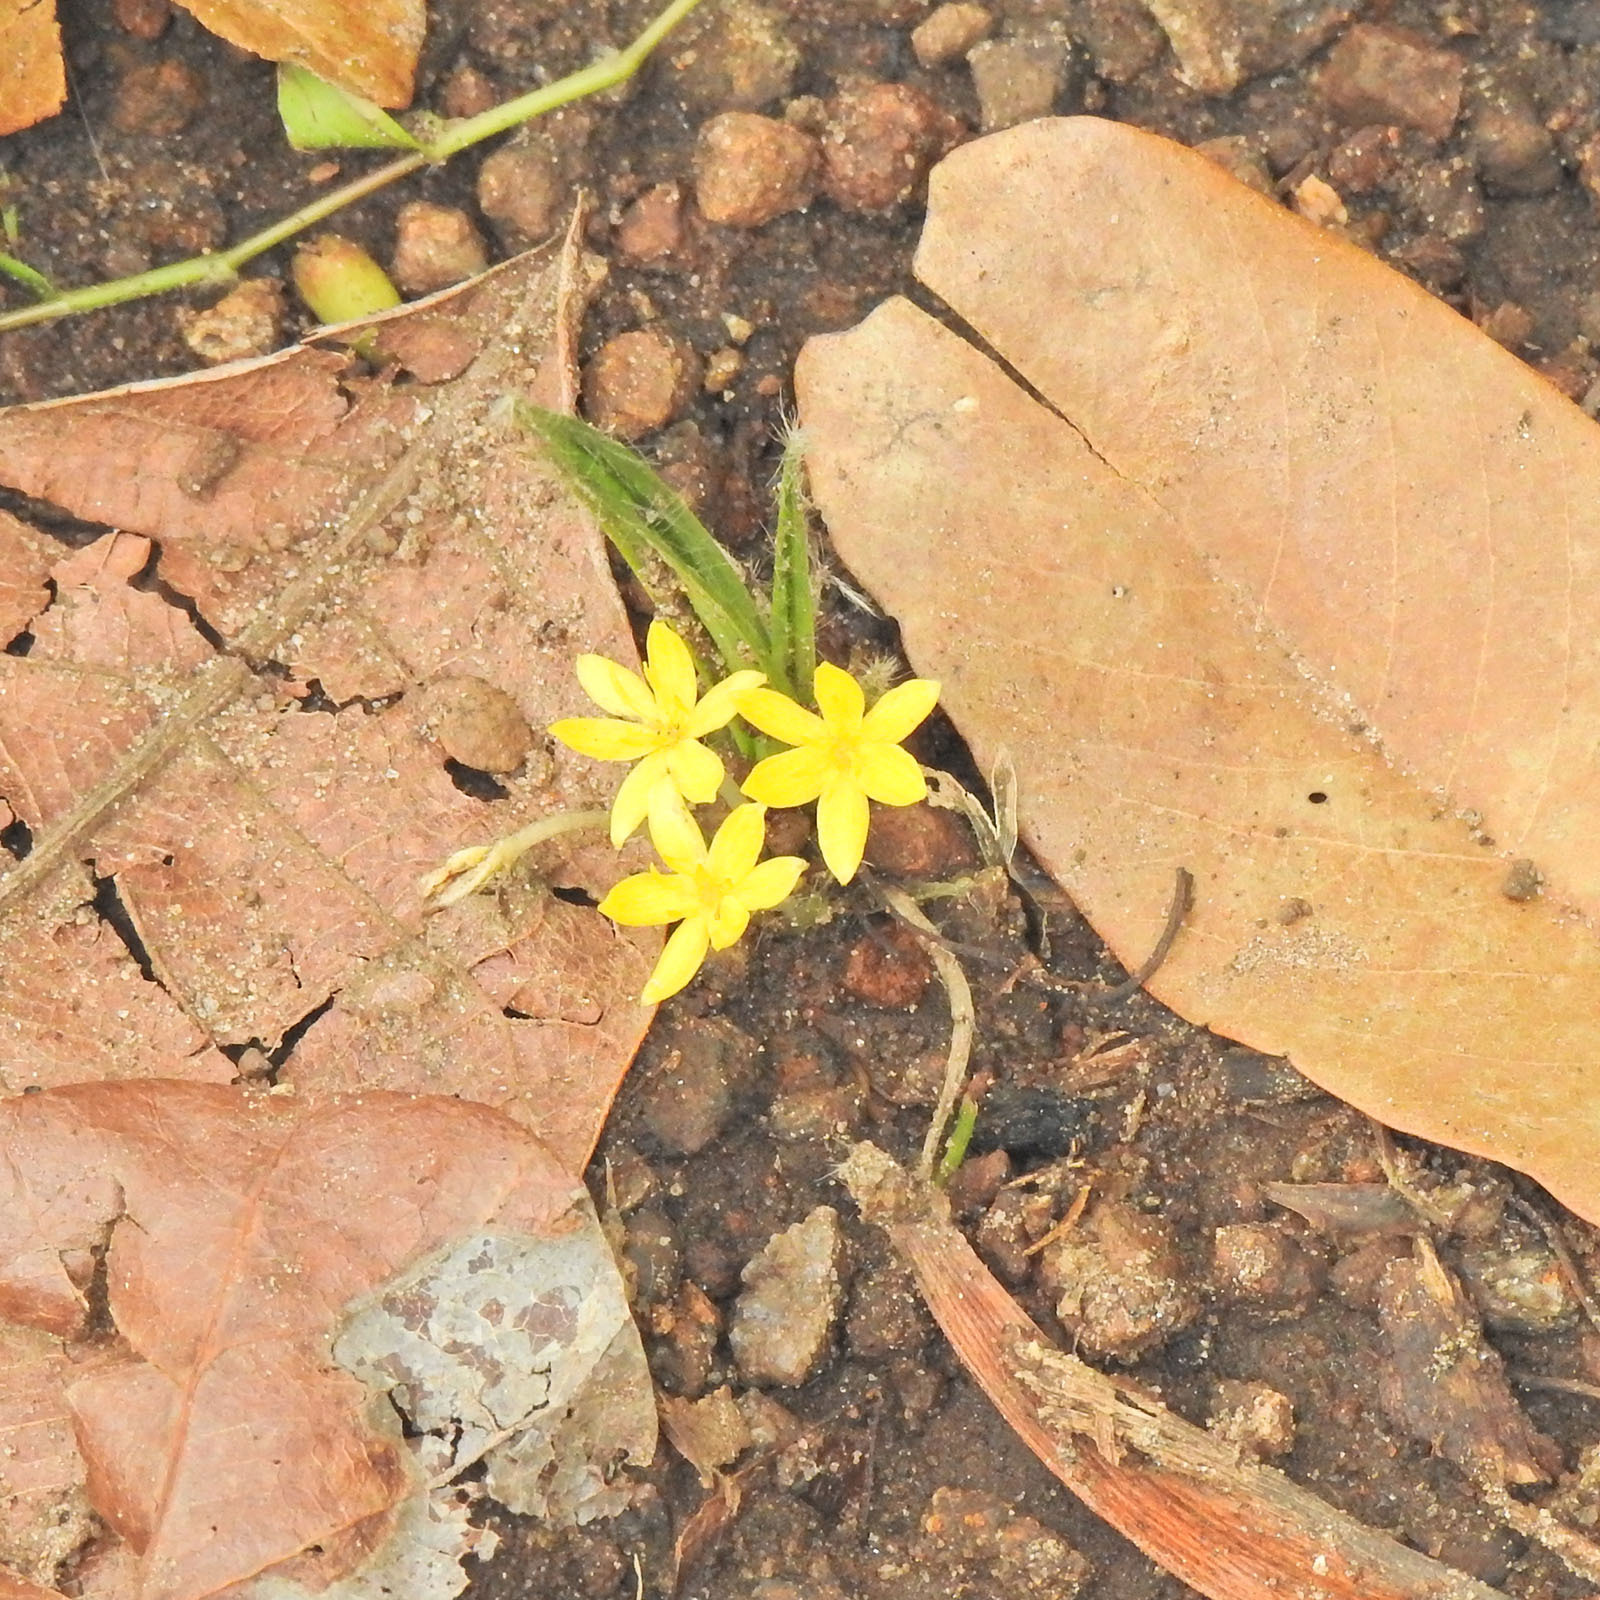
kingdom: Plantae
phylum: Tracheophyta
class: Liliopsida
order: Asparagales
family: Hypoxidaceae
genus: Curculigo
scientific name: Curculigo orchioides
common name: Golden eye-grass
